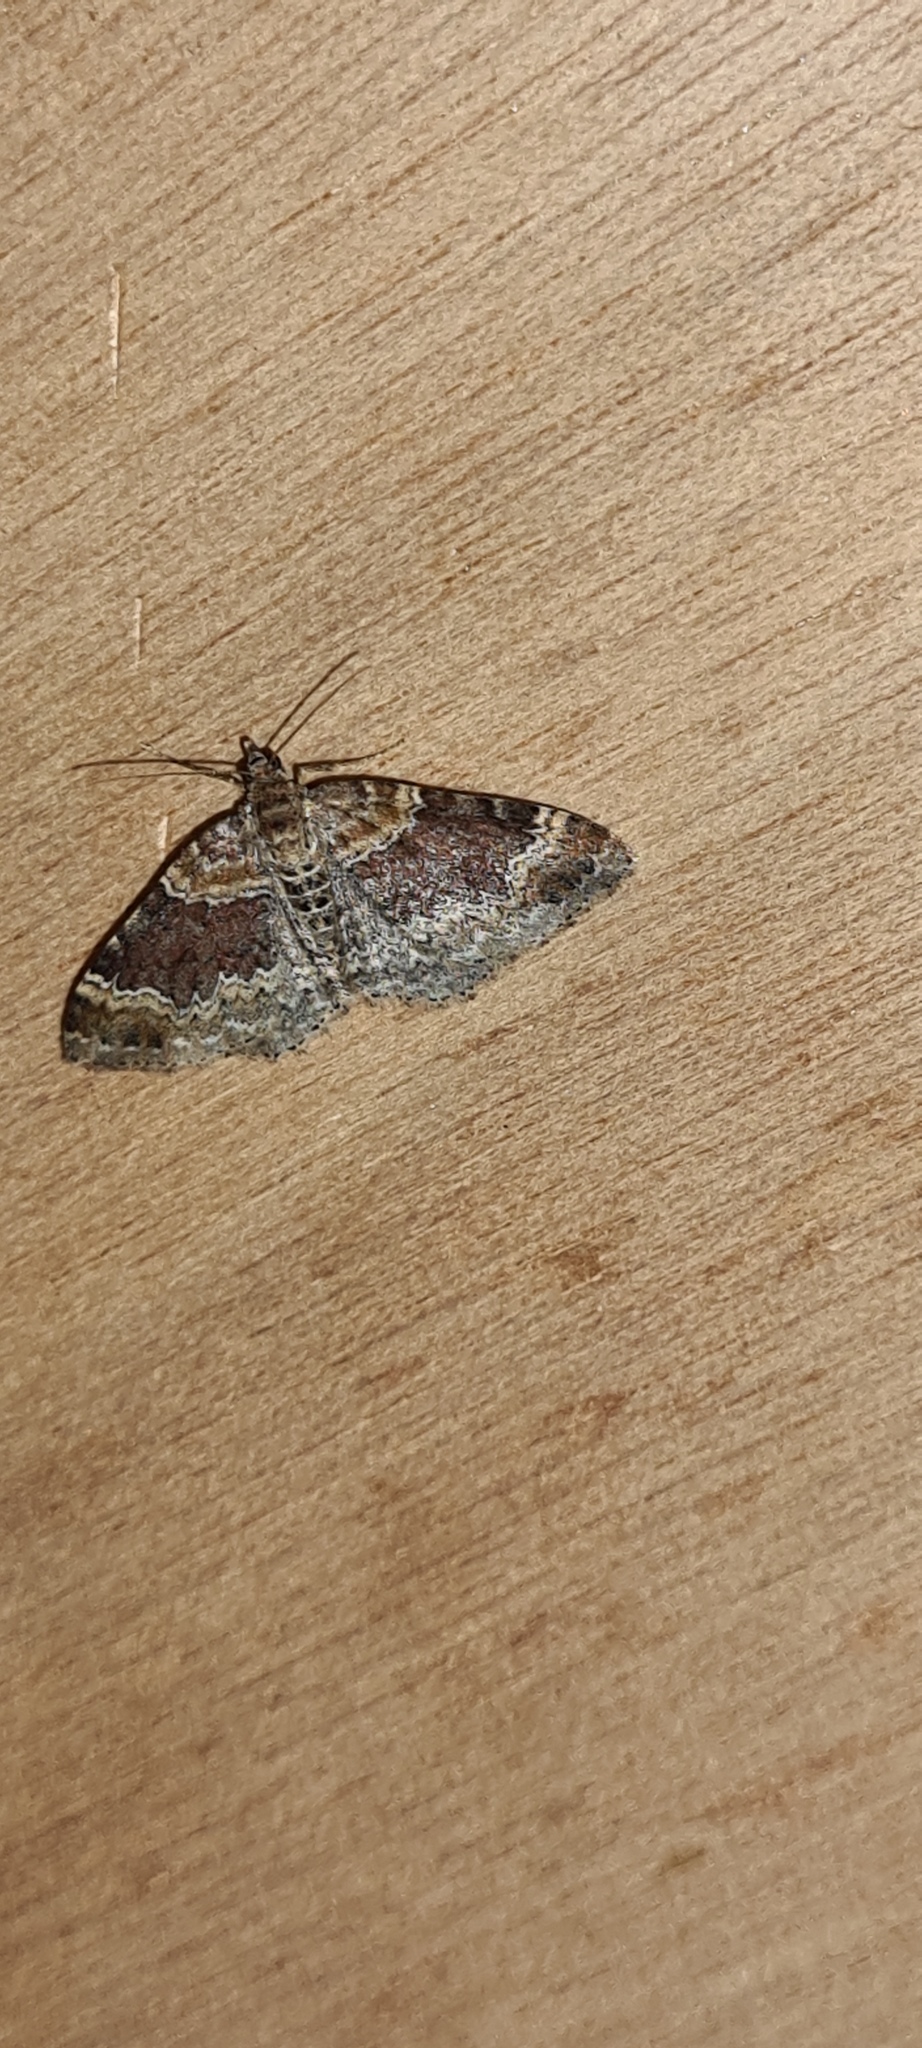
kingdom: Animalia
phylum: Arthropoda
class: Insecta
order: Lepidoptera
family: Geometridae
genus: Xanthorhoe
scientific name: Xanthorhoe spadicearia
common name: Red twin-spot carpet
